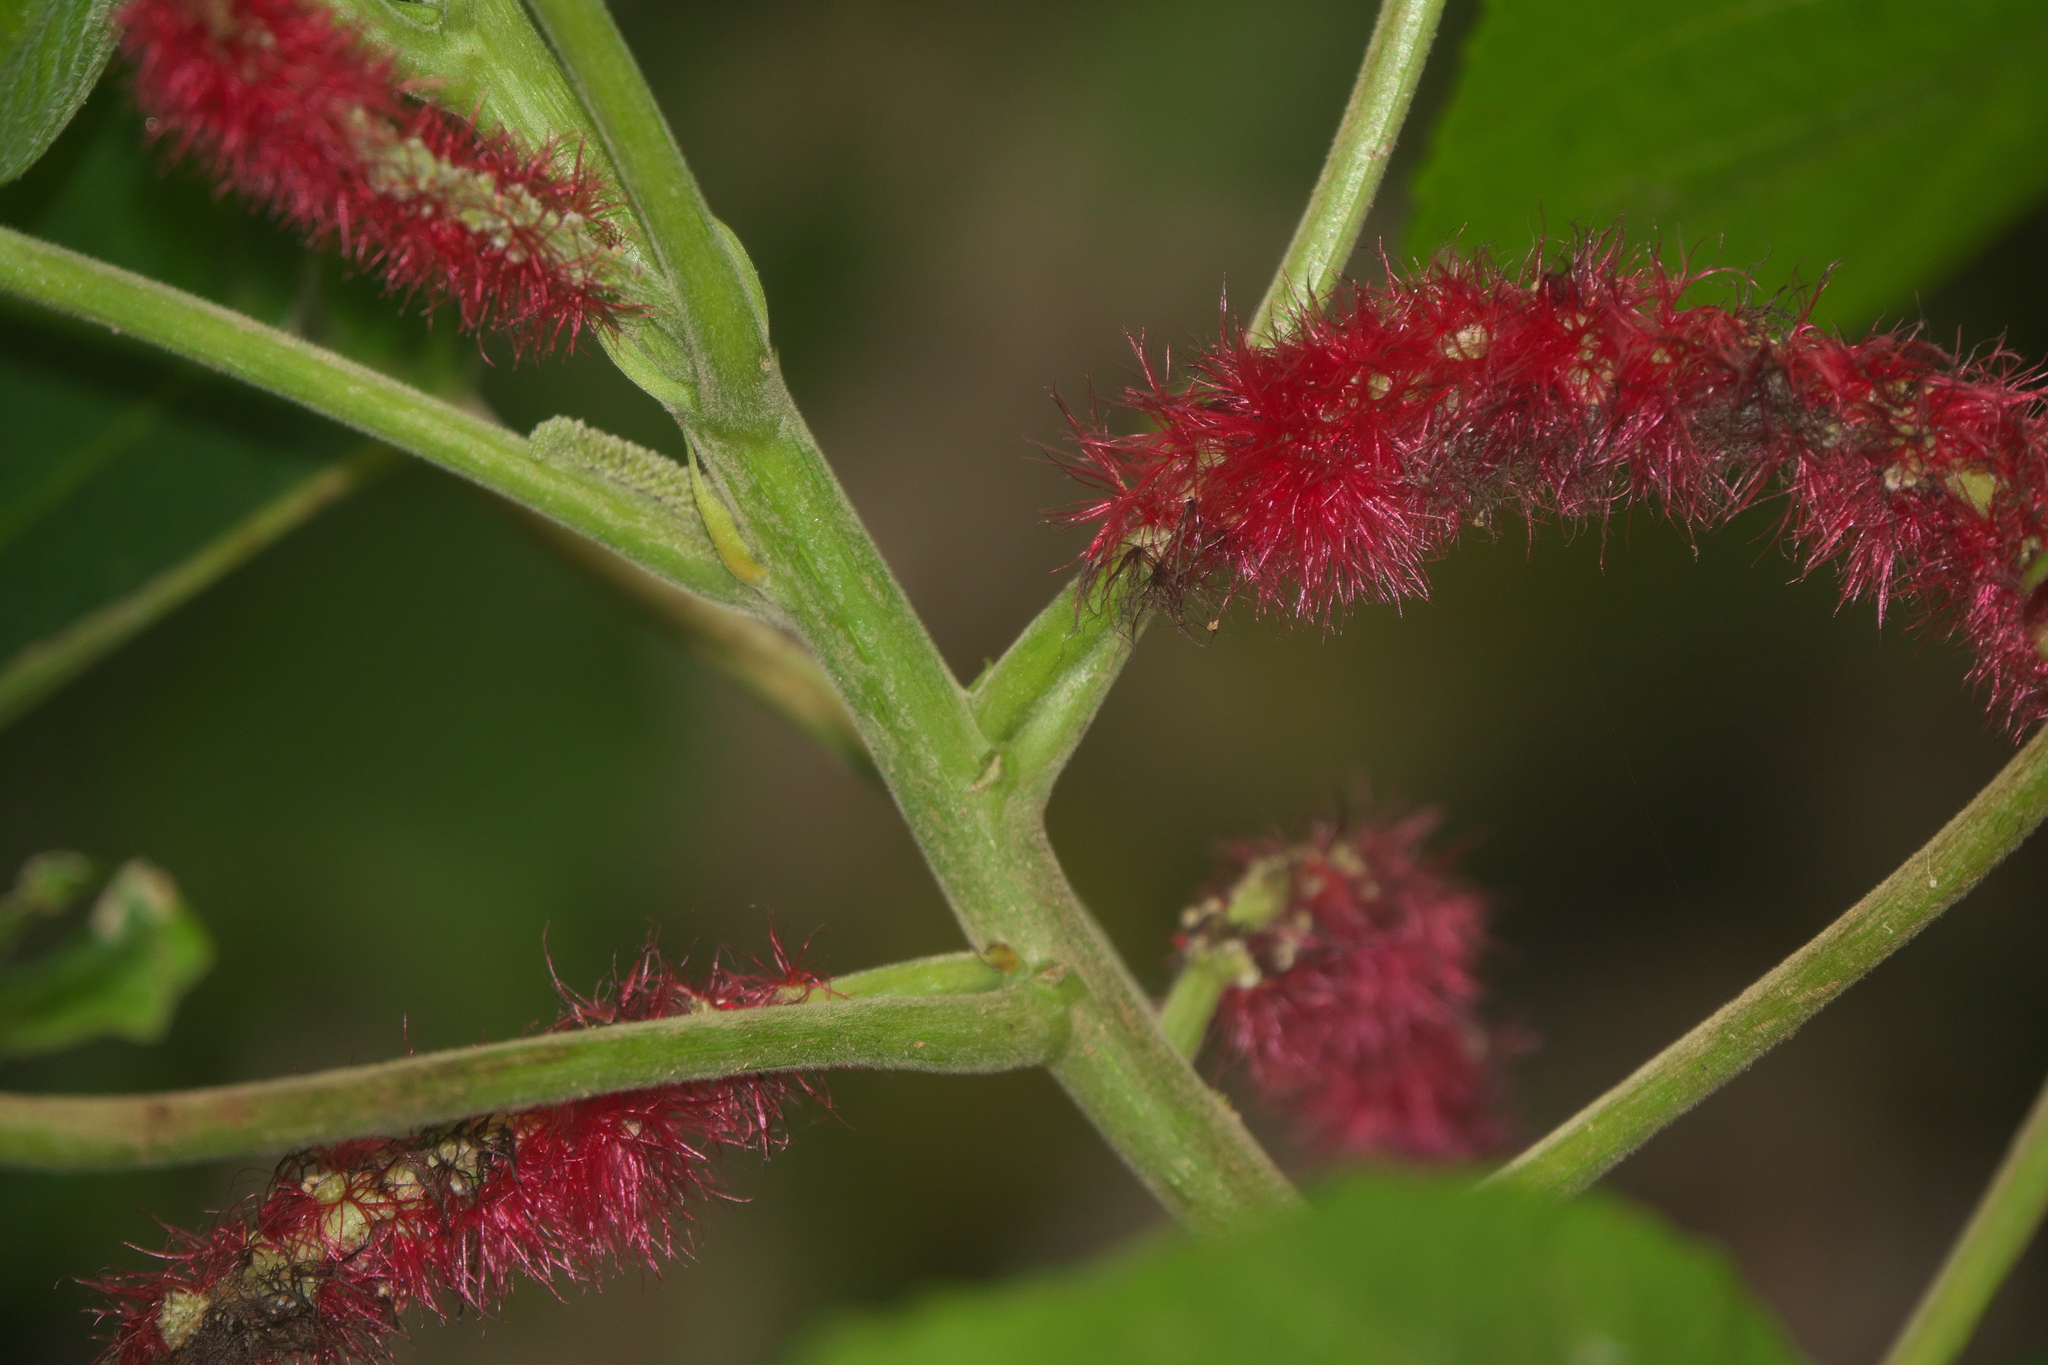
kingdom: Plantae
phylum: Tracheophyta
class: Magnoliopsida
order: Malpighiales
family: Euphorbiaceae
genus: Acalypha
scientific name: Acalypha hispida
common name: Chenilleplant
